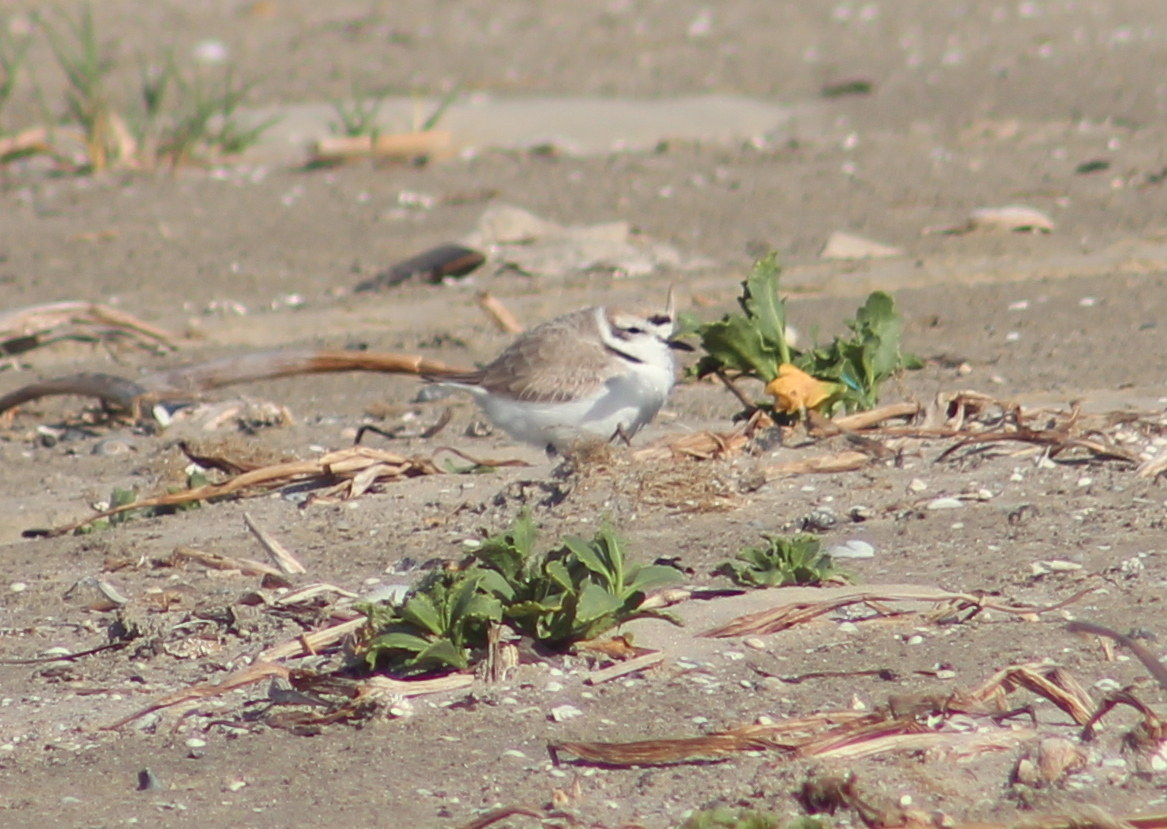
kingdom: Animalia
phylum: Chordata
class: Aves
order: Charadriiformes
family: Charadriidae
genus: Anarhynchus
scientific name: Anarhynchus
